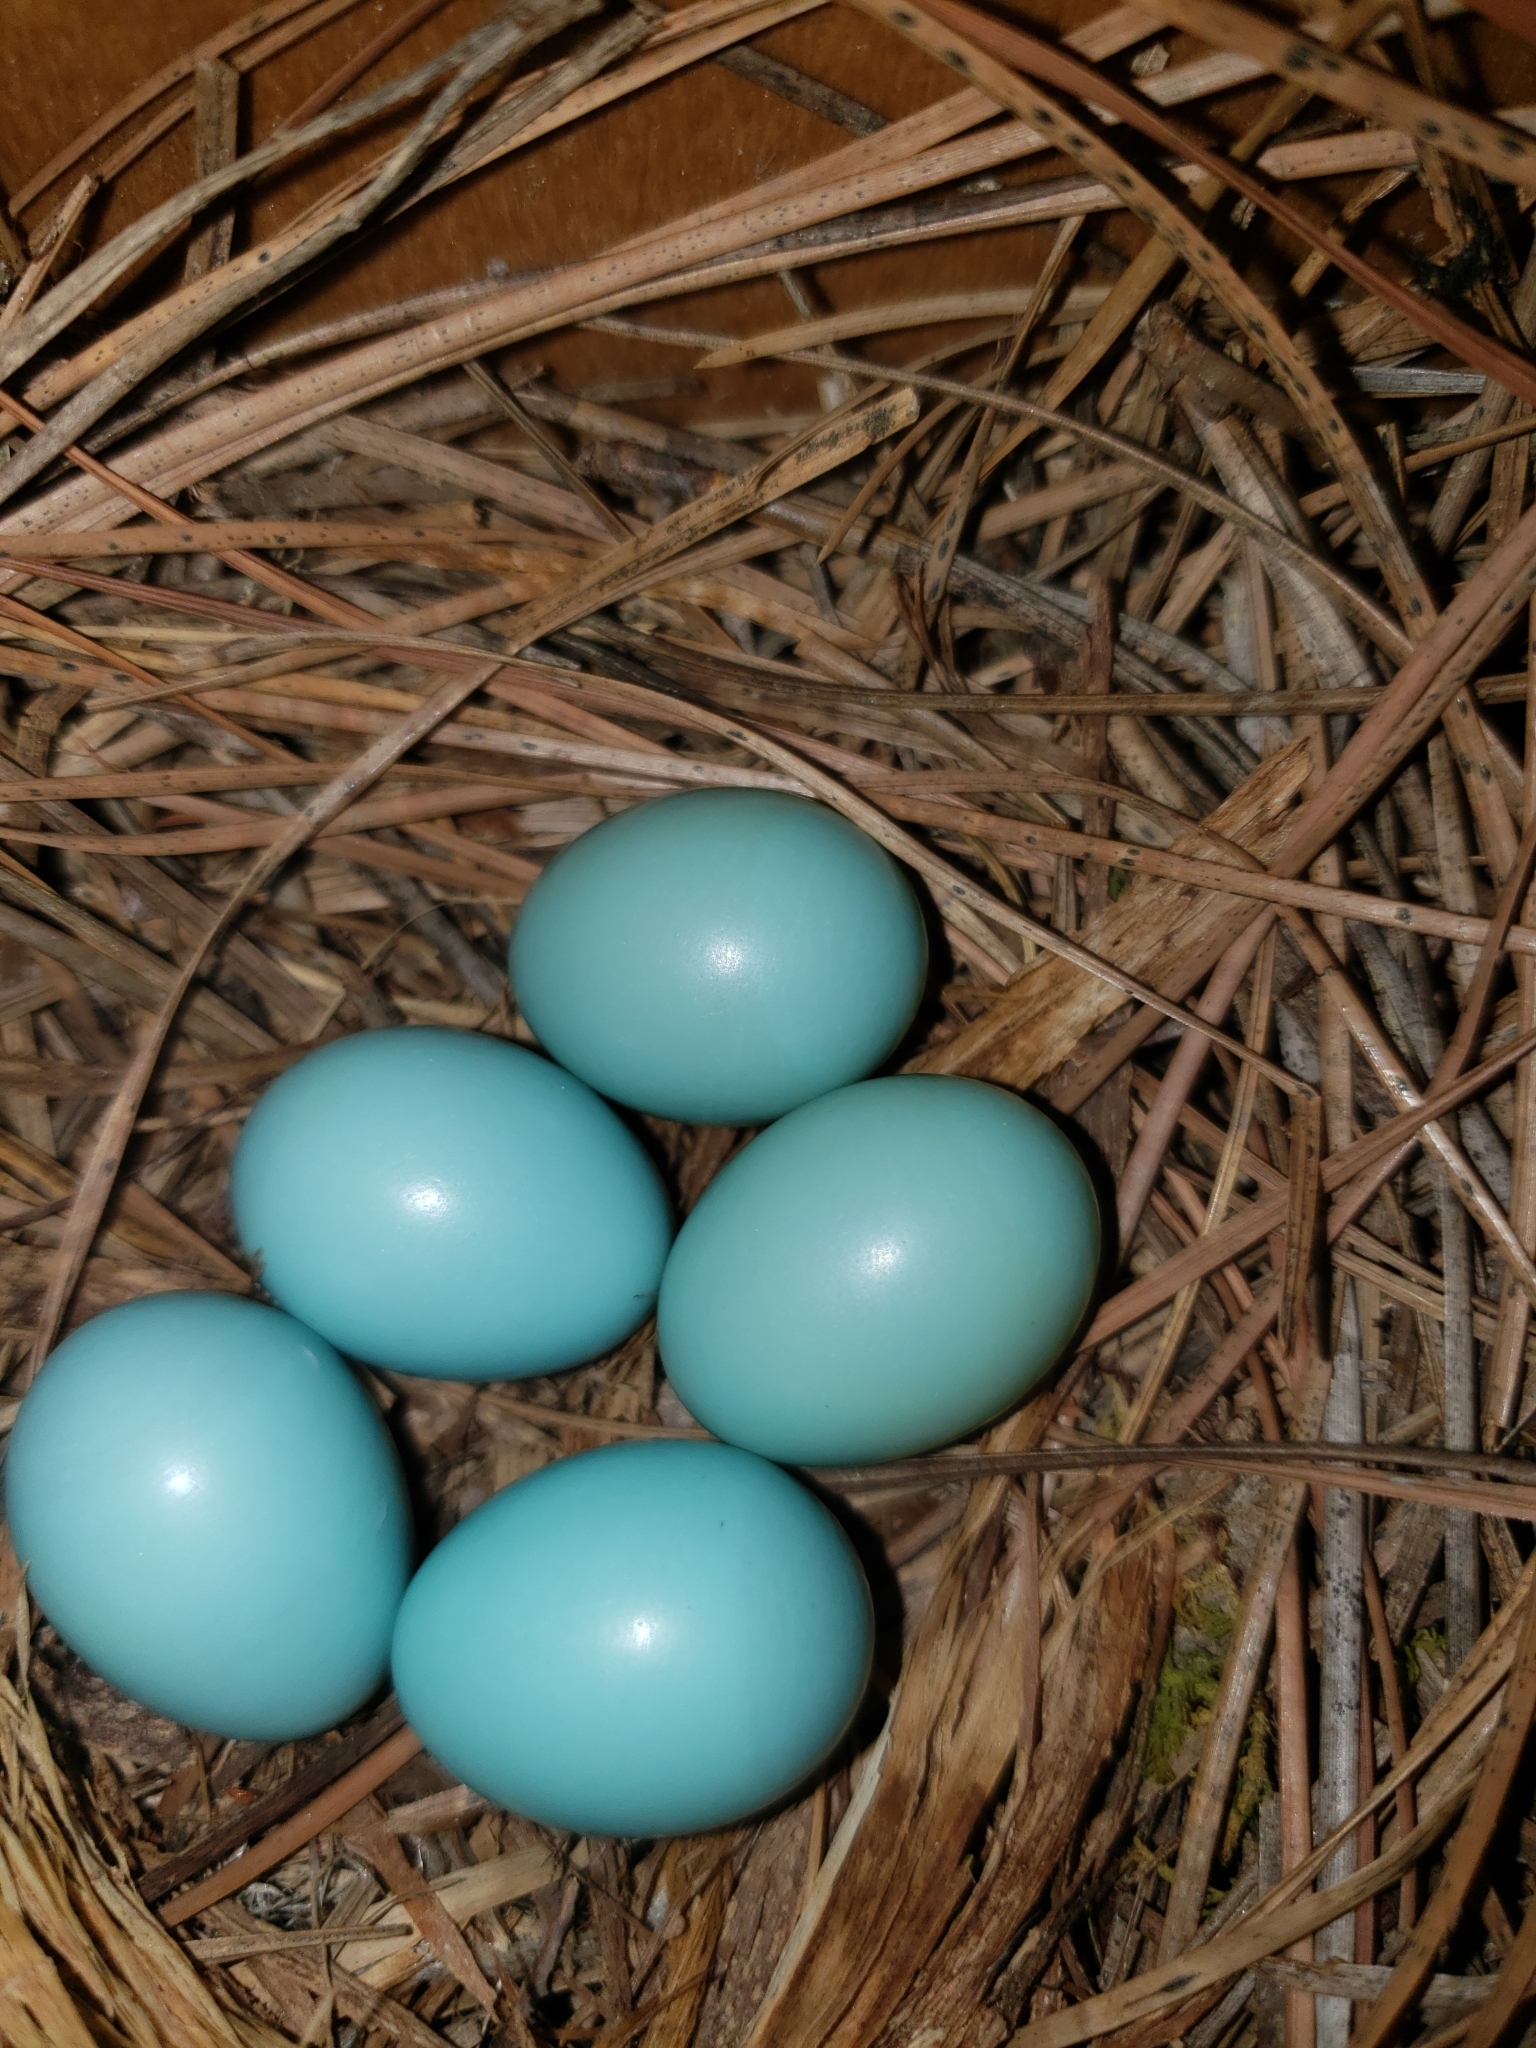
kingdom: Animalia
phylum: Chordata
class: Aves
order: Passeriformes
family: Turdidae
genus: Sialia
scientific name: Sialia sialis
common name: Eastern bluebird
